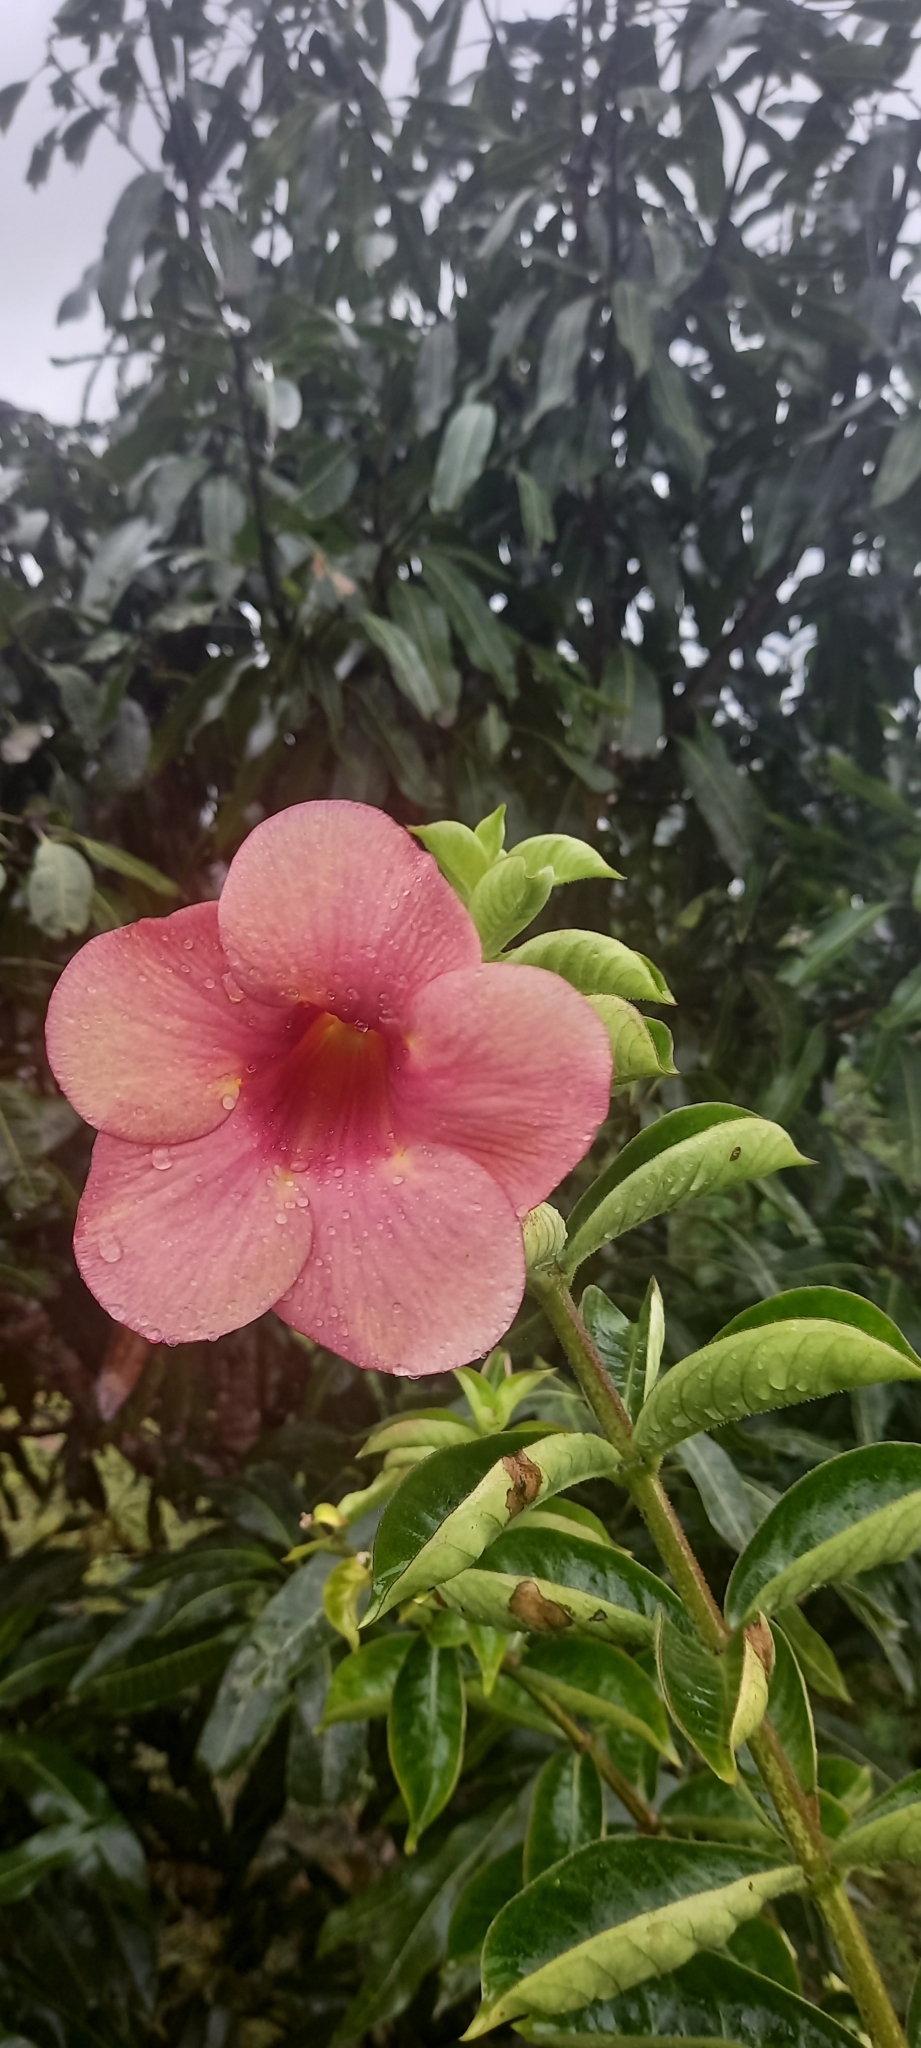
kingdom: Plantae
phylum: Tracheophyta
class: Magnoliopsida
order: Gentianales
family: Apocynaceae
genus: Allamanda
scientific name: Allamanda blanchetii
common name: Purple allamanda
